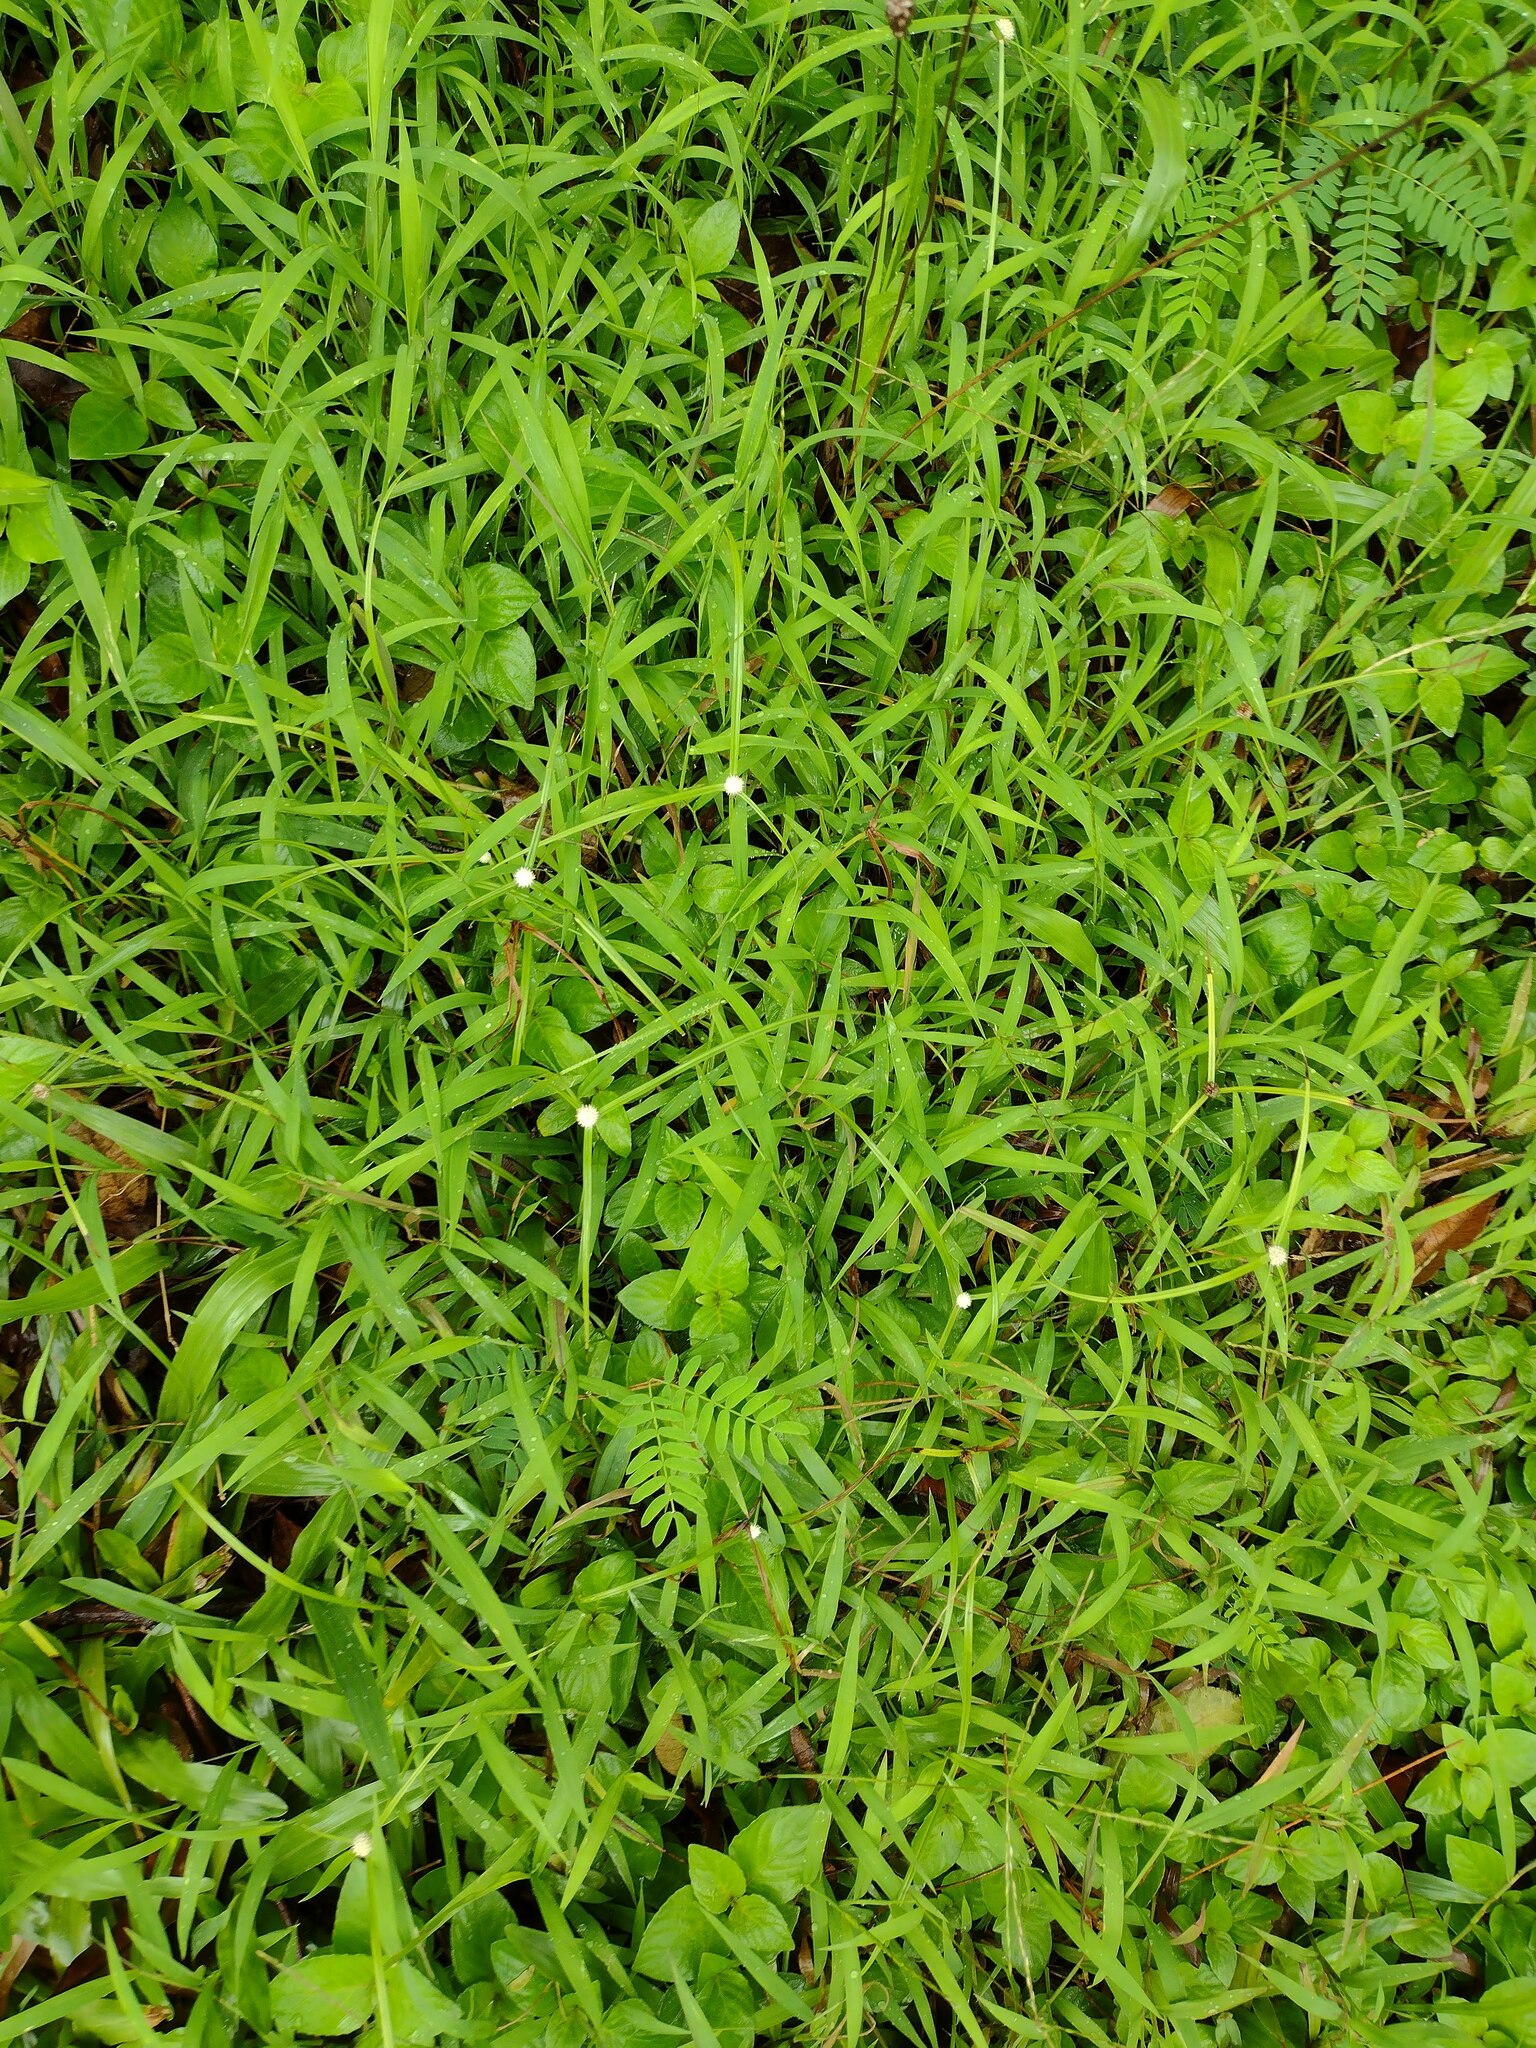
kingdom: Plantae
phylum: Tracheophyta
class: Liliopsida
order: Poales
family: Cyperaceae
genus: Cyperus
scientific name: Cyperus mindorensis
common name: Flatsedge
